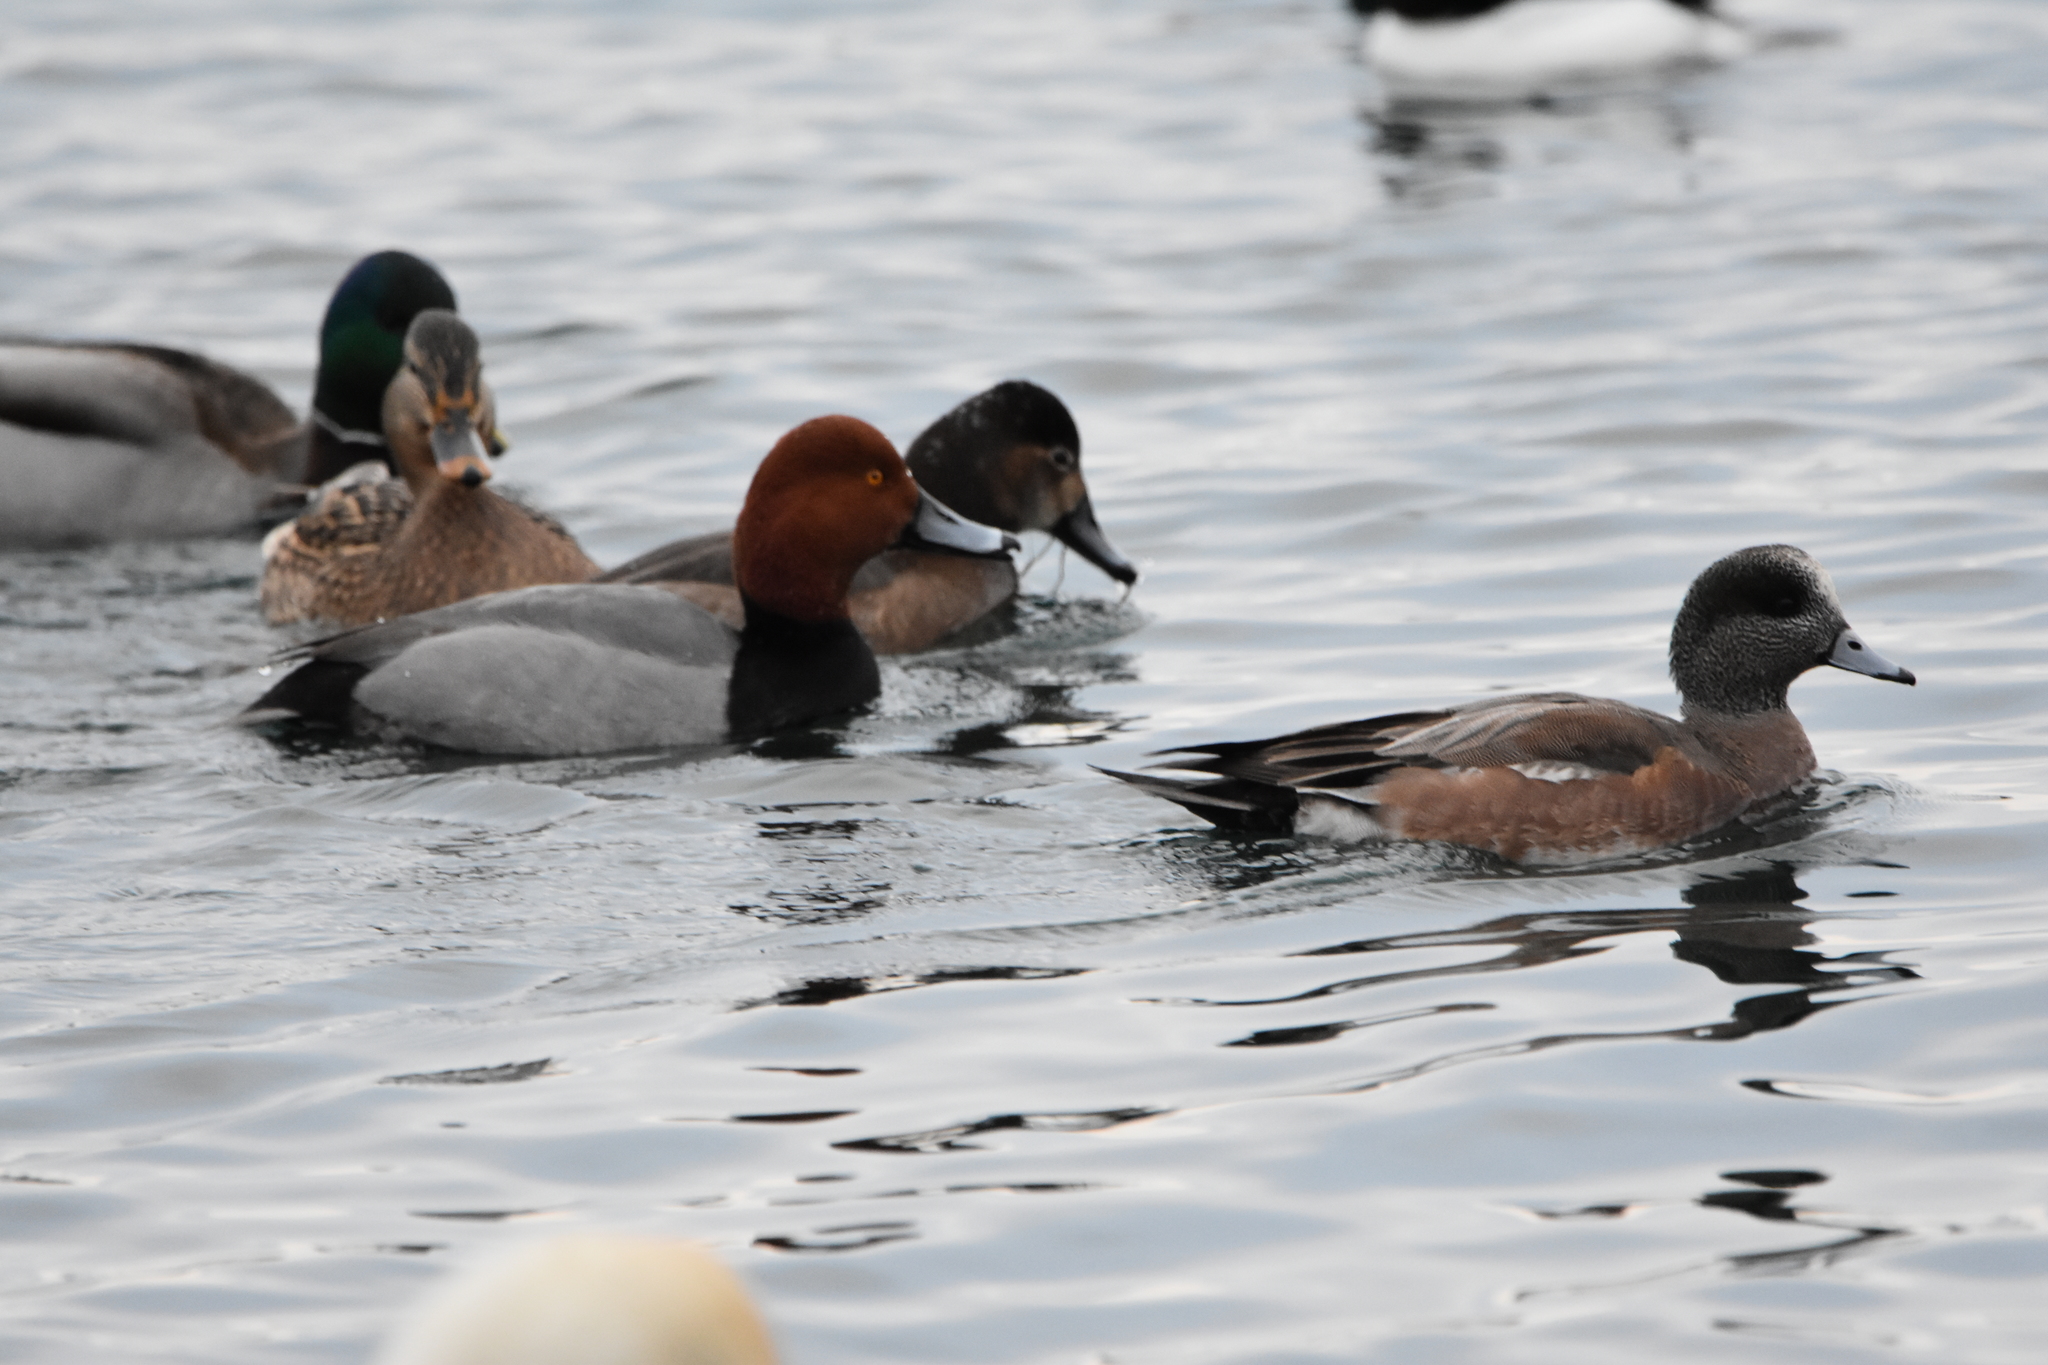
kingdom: Animalia
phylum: Chordata
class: Aves
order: Anseriformes
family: Anatidae
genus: Mareca
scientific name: Mareca americana
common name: American wigeon
